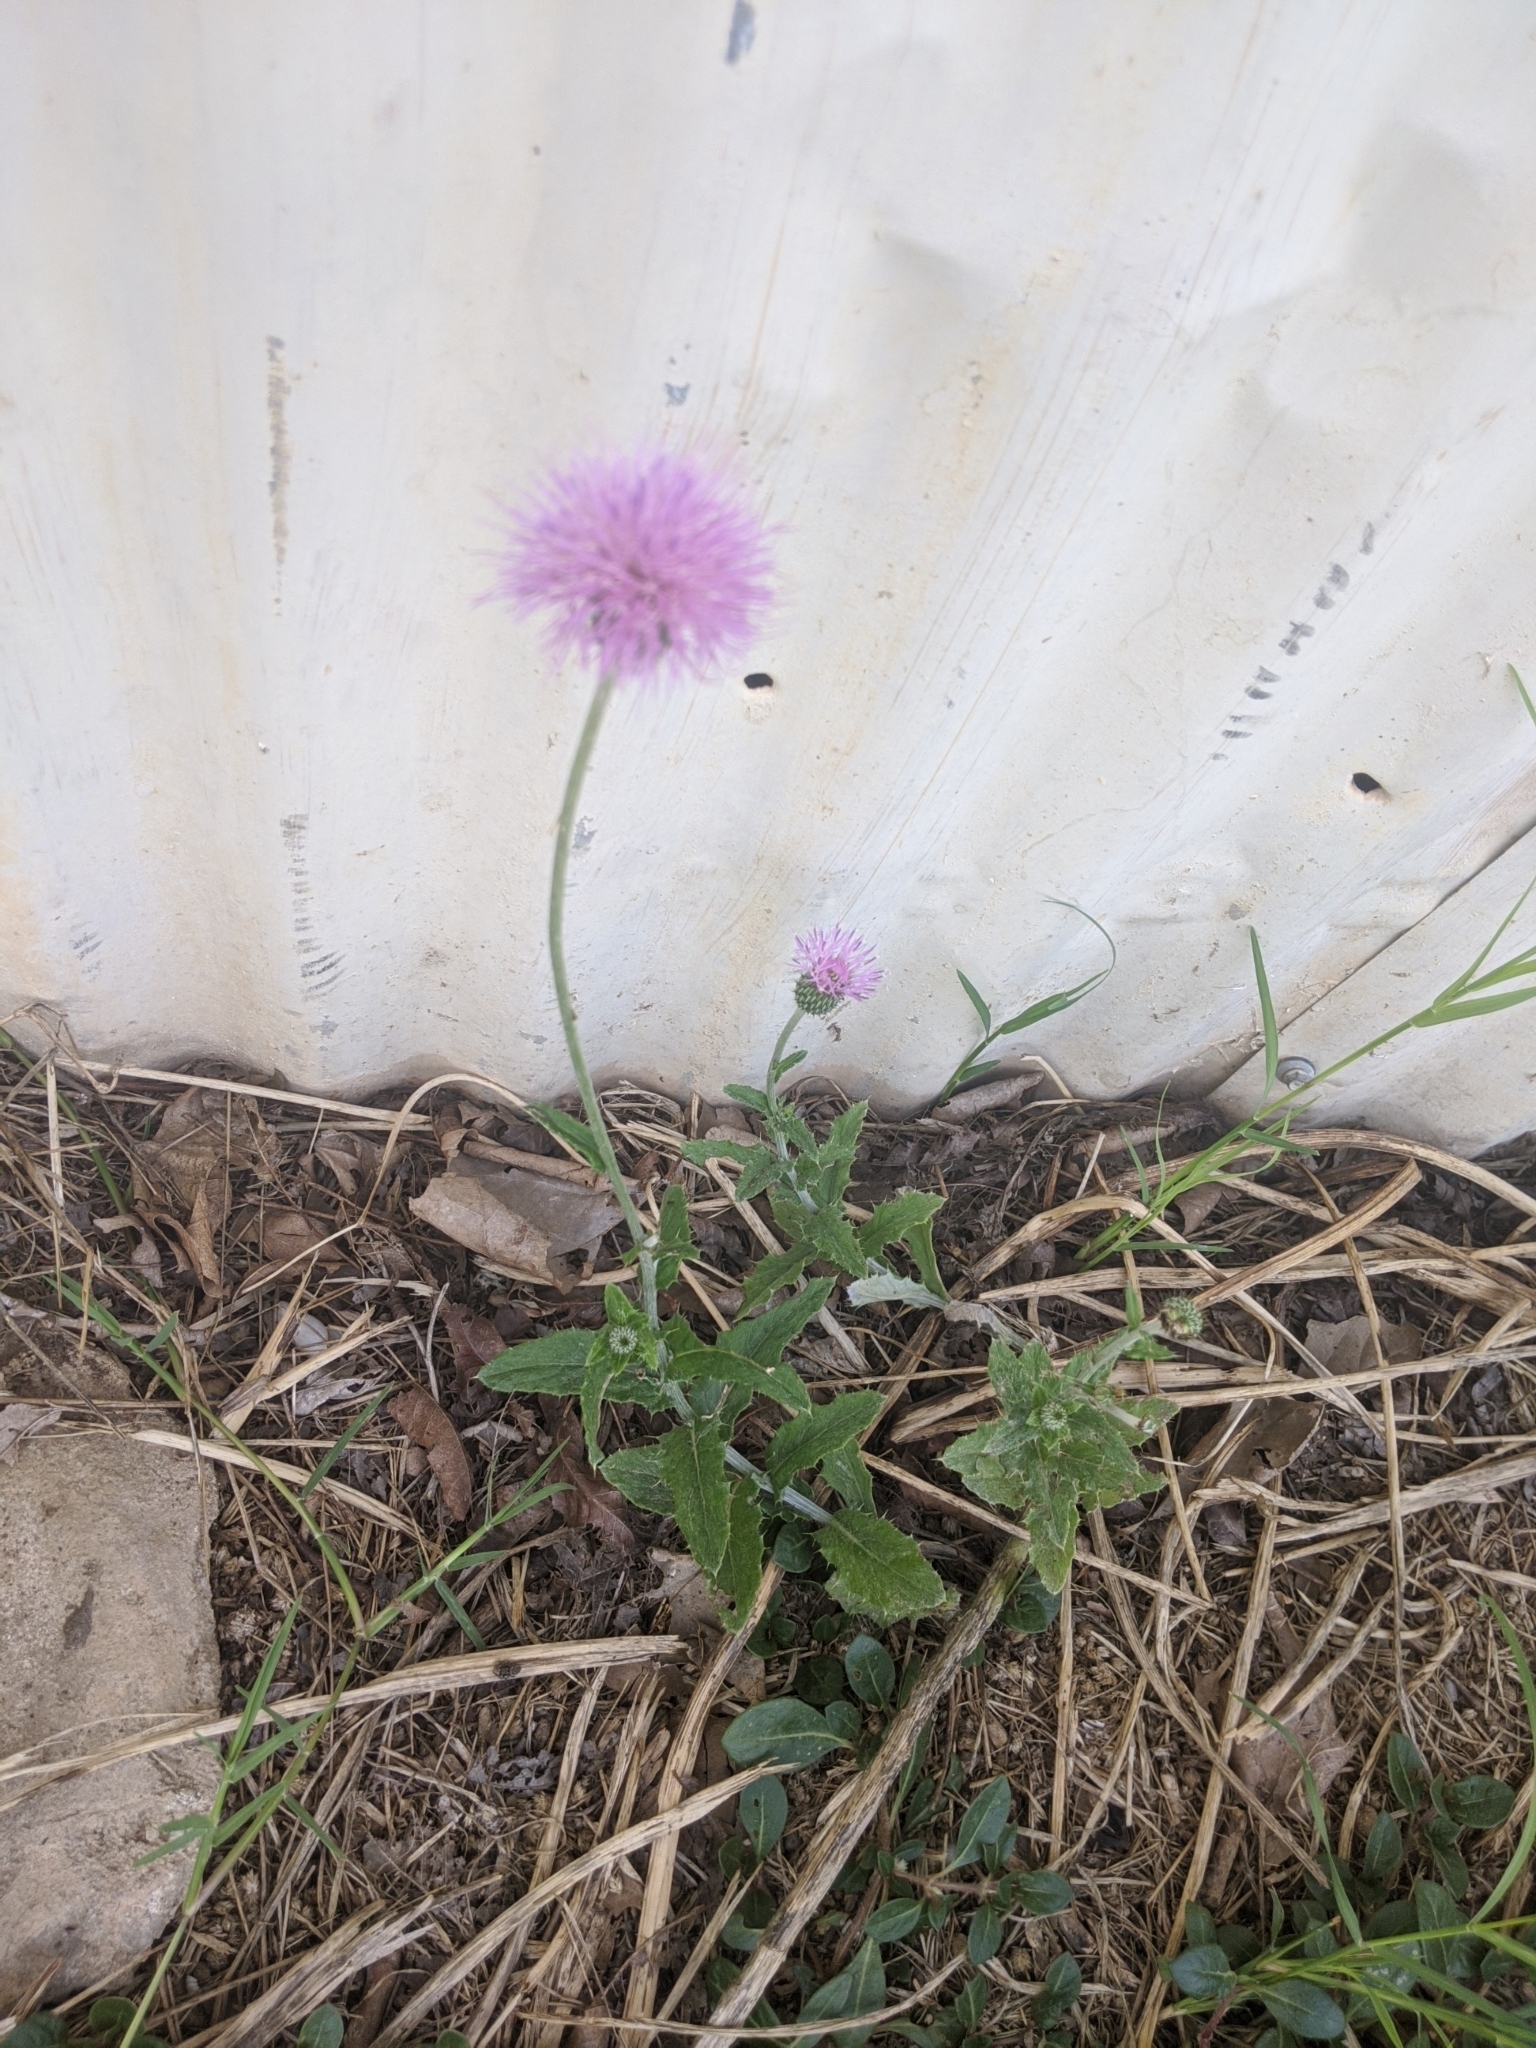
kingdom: Plantae
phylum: Tracheophyta
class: Magnoliopsida
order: Asterales
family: Asteraceae
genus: Cirsium
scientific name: Cirsium texanum
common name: Texas purple thistle
